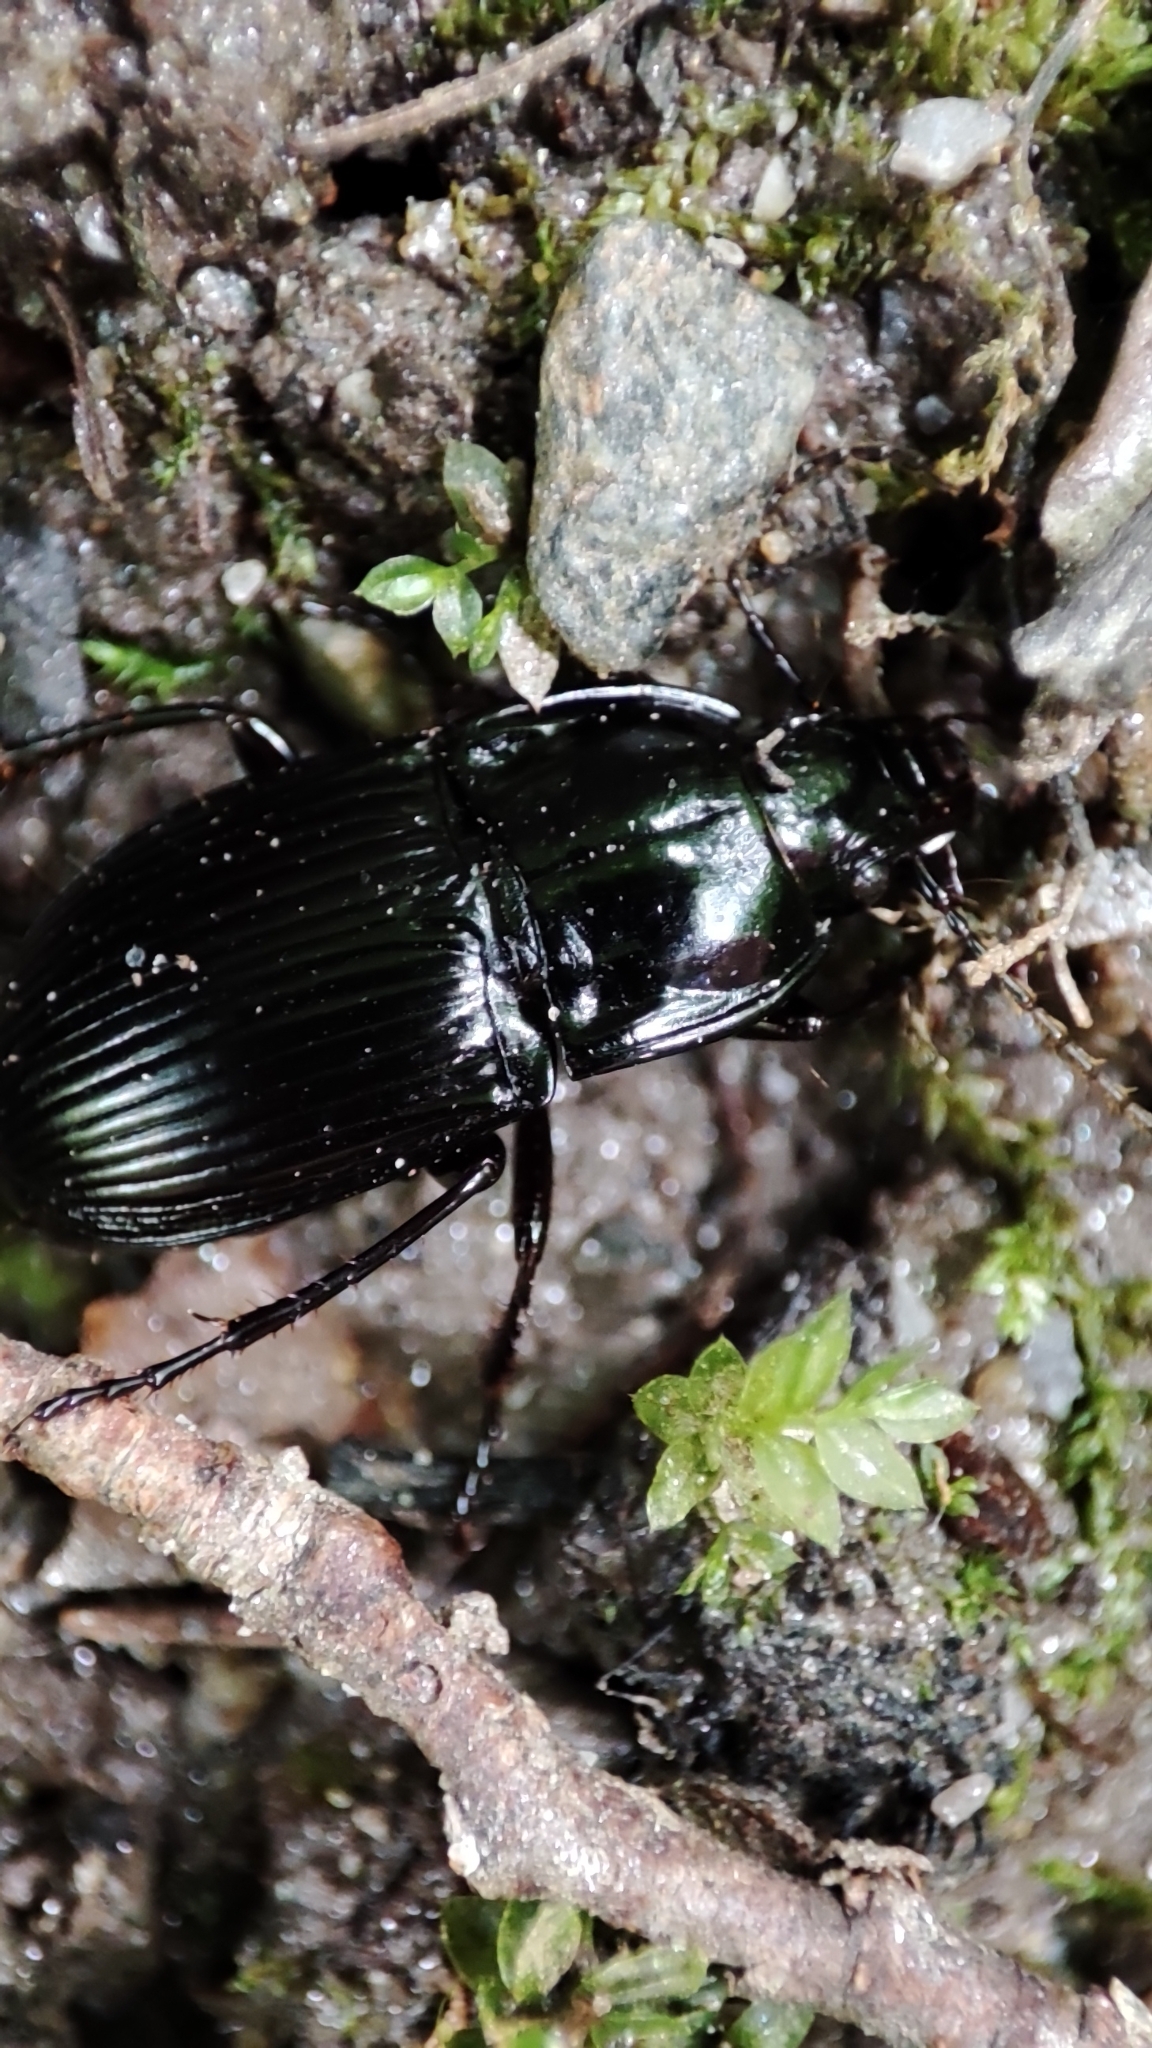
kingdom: Animalia
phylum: Arthropoda
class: Insecta
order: Coleoptera
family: Carabidae
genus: Abax
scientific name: Abax ovalis
